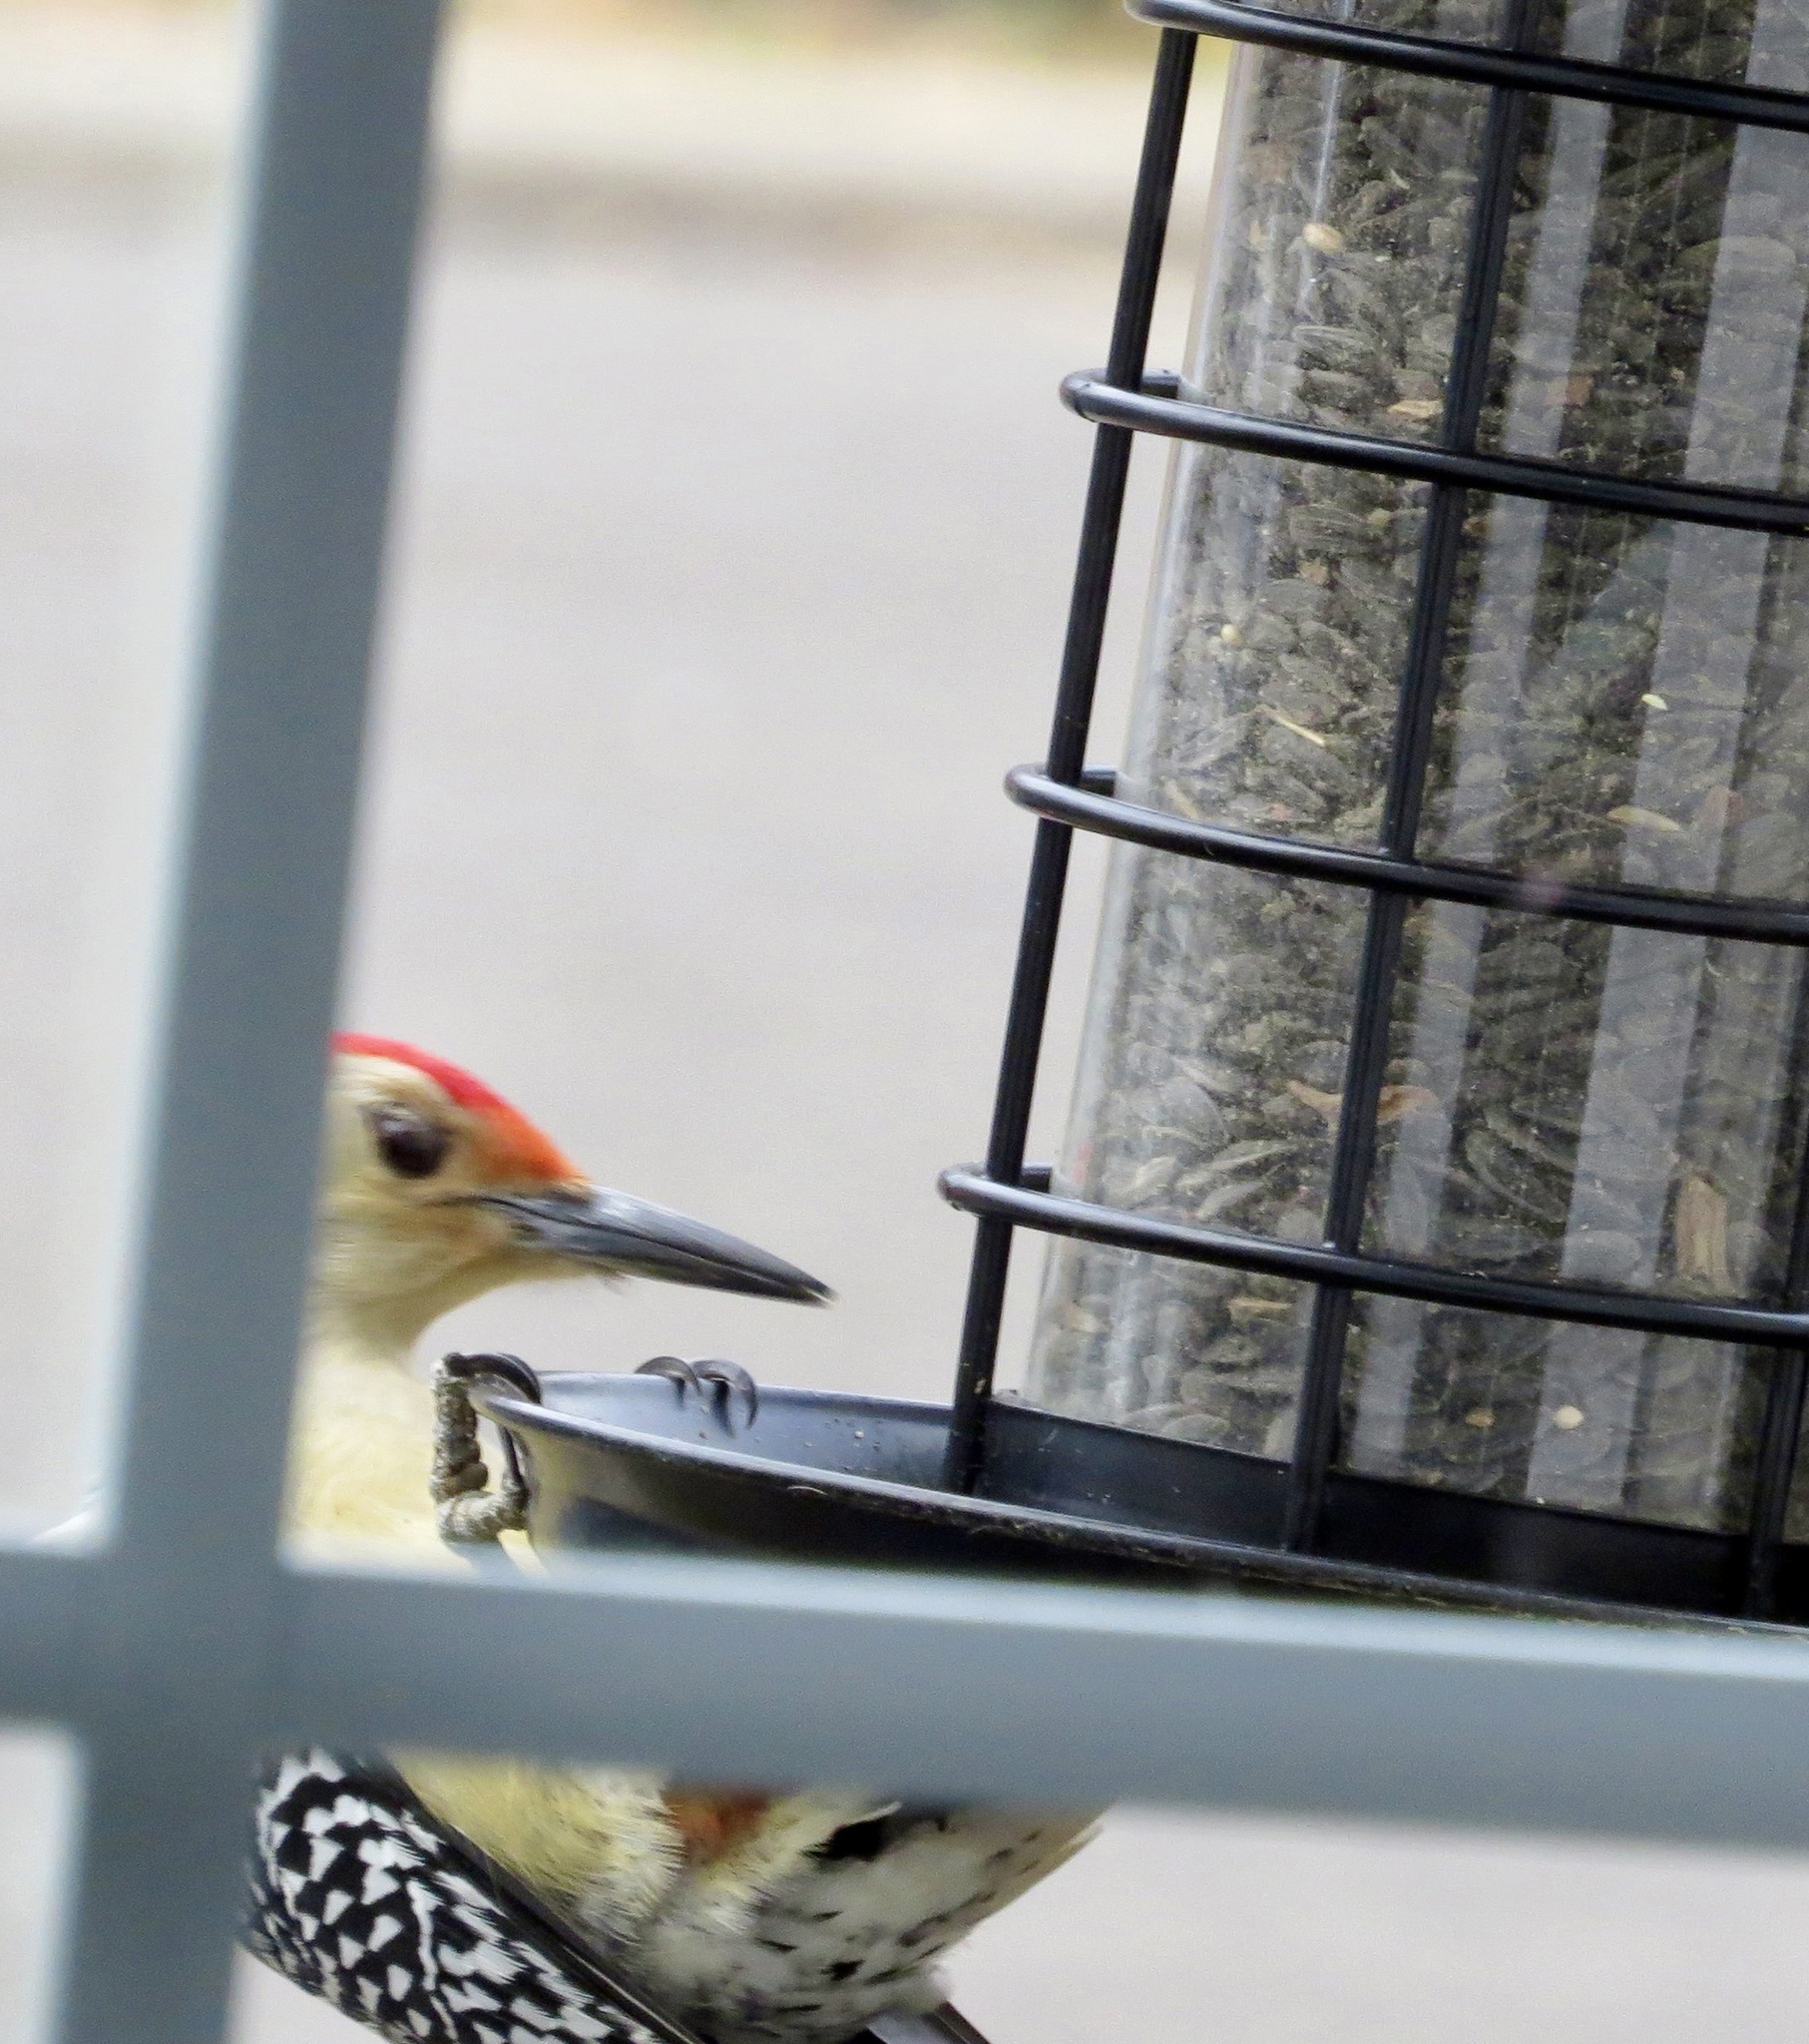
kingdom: Animalia
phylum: Chordata
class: Aves
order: Piciformes
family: Picidae
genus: Melanerpes
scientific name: Melanerpes carolinus
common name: Red-bellied woodpecker
